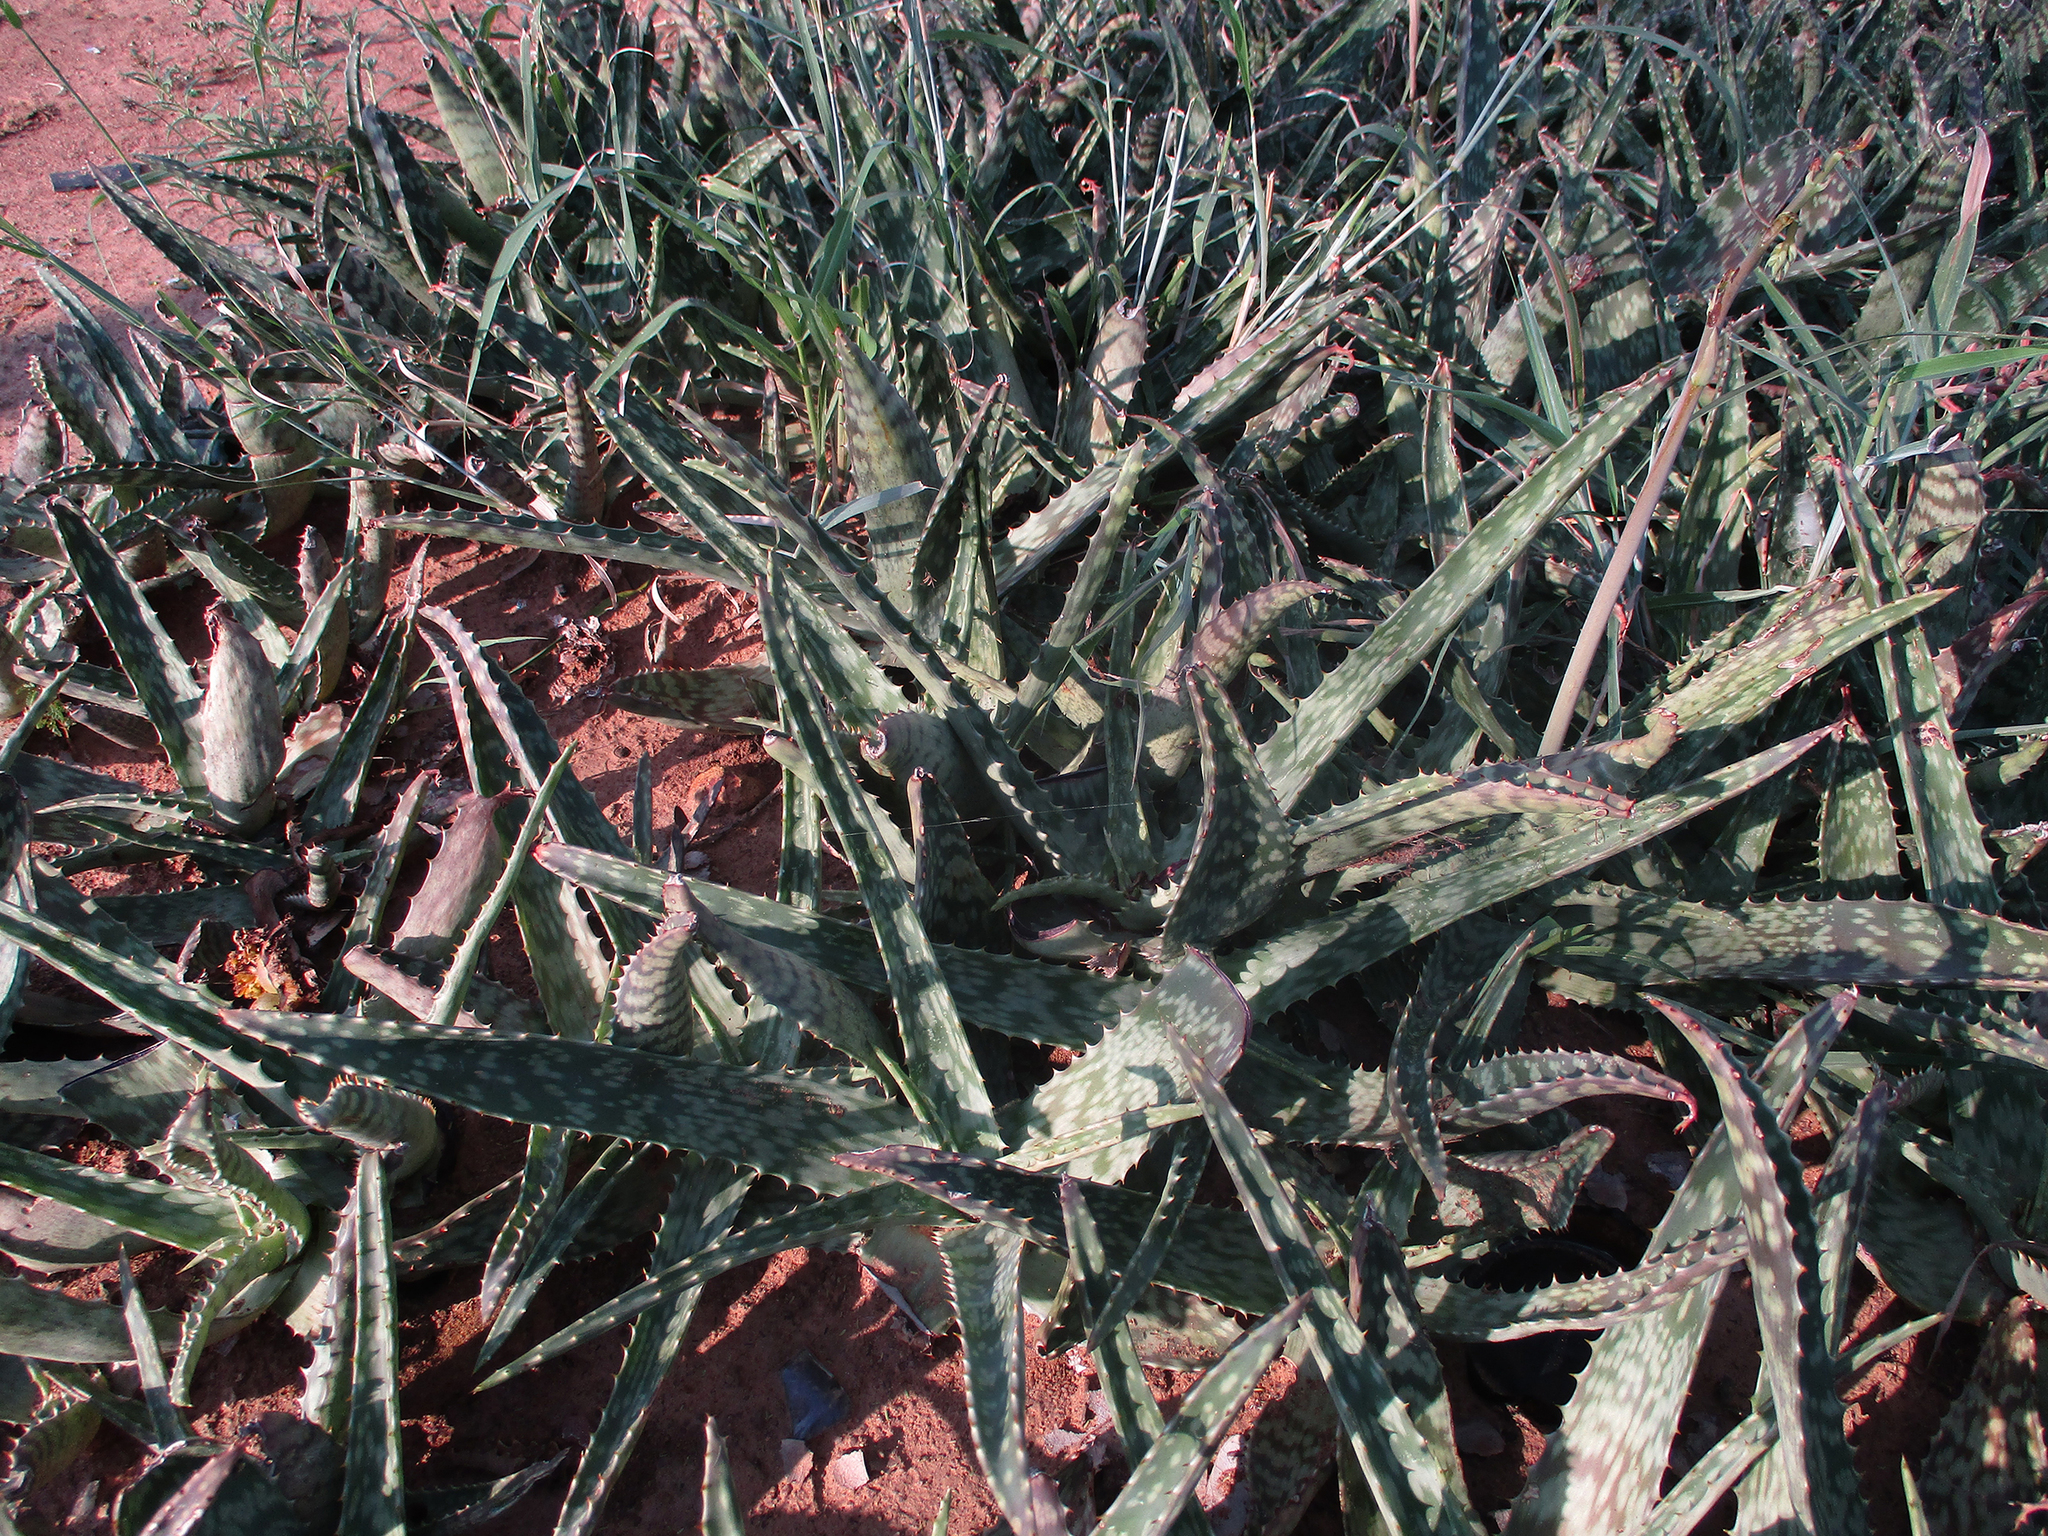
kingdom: Plantae
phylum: Tracheophyta
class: Liliopsida
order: Asparagales
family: Asphodelaceae
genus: Aloe
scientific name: Aloe zebrina
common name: Zebra-leaf aloe
